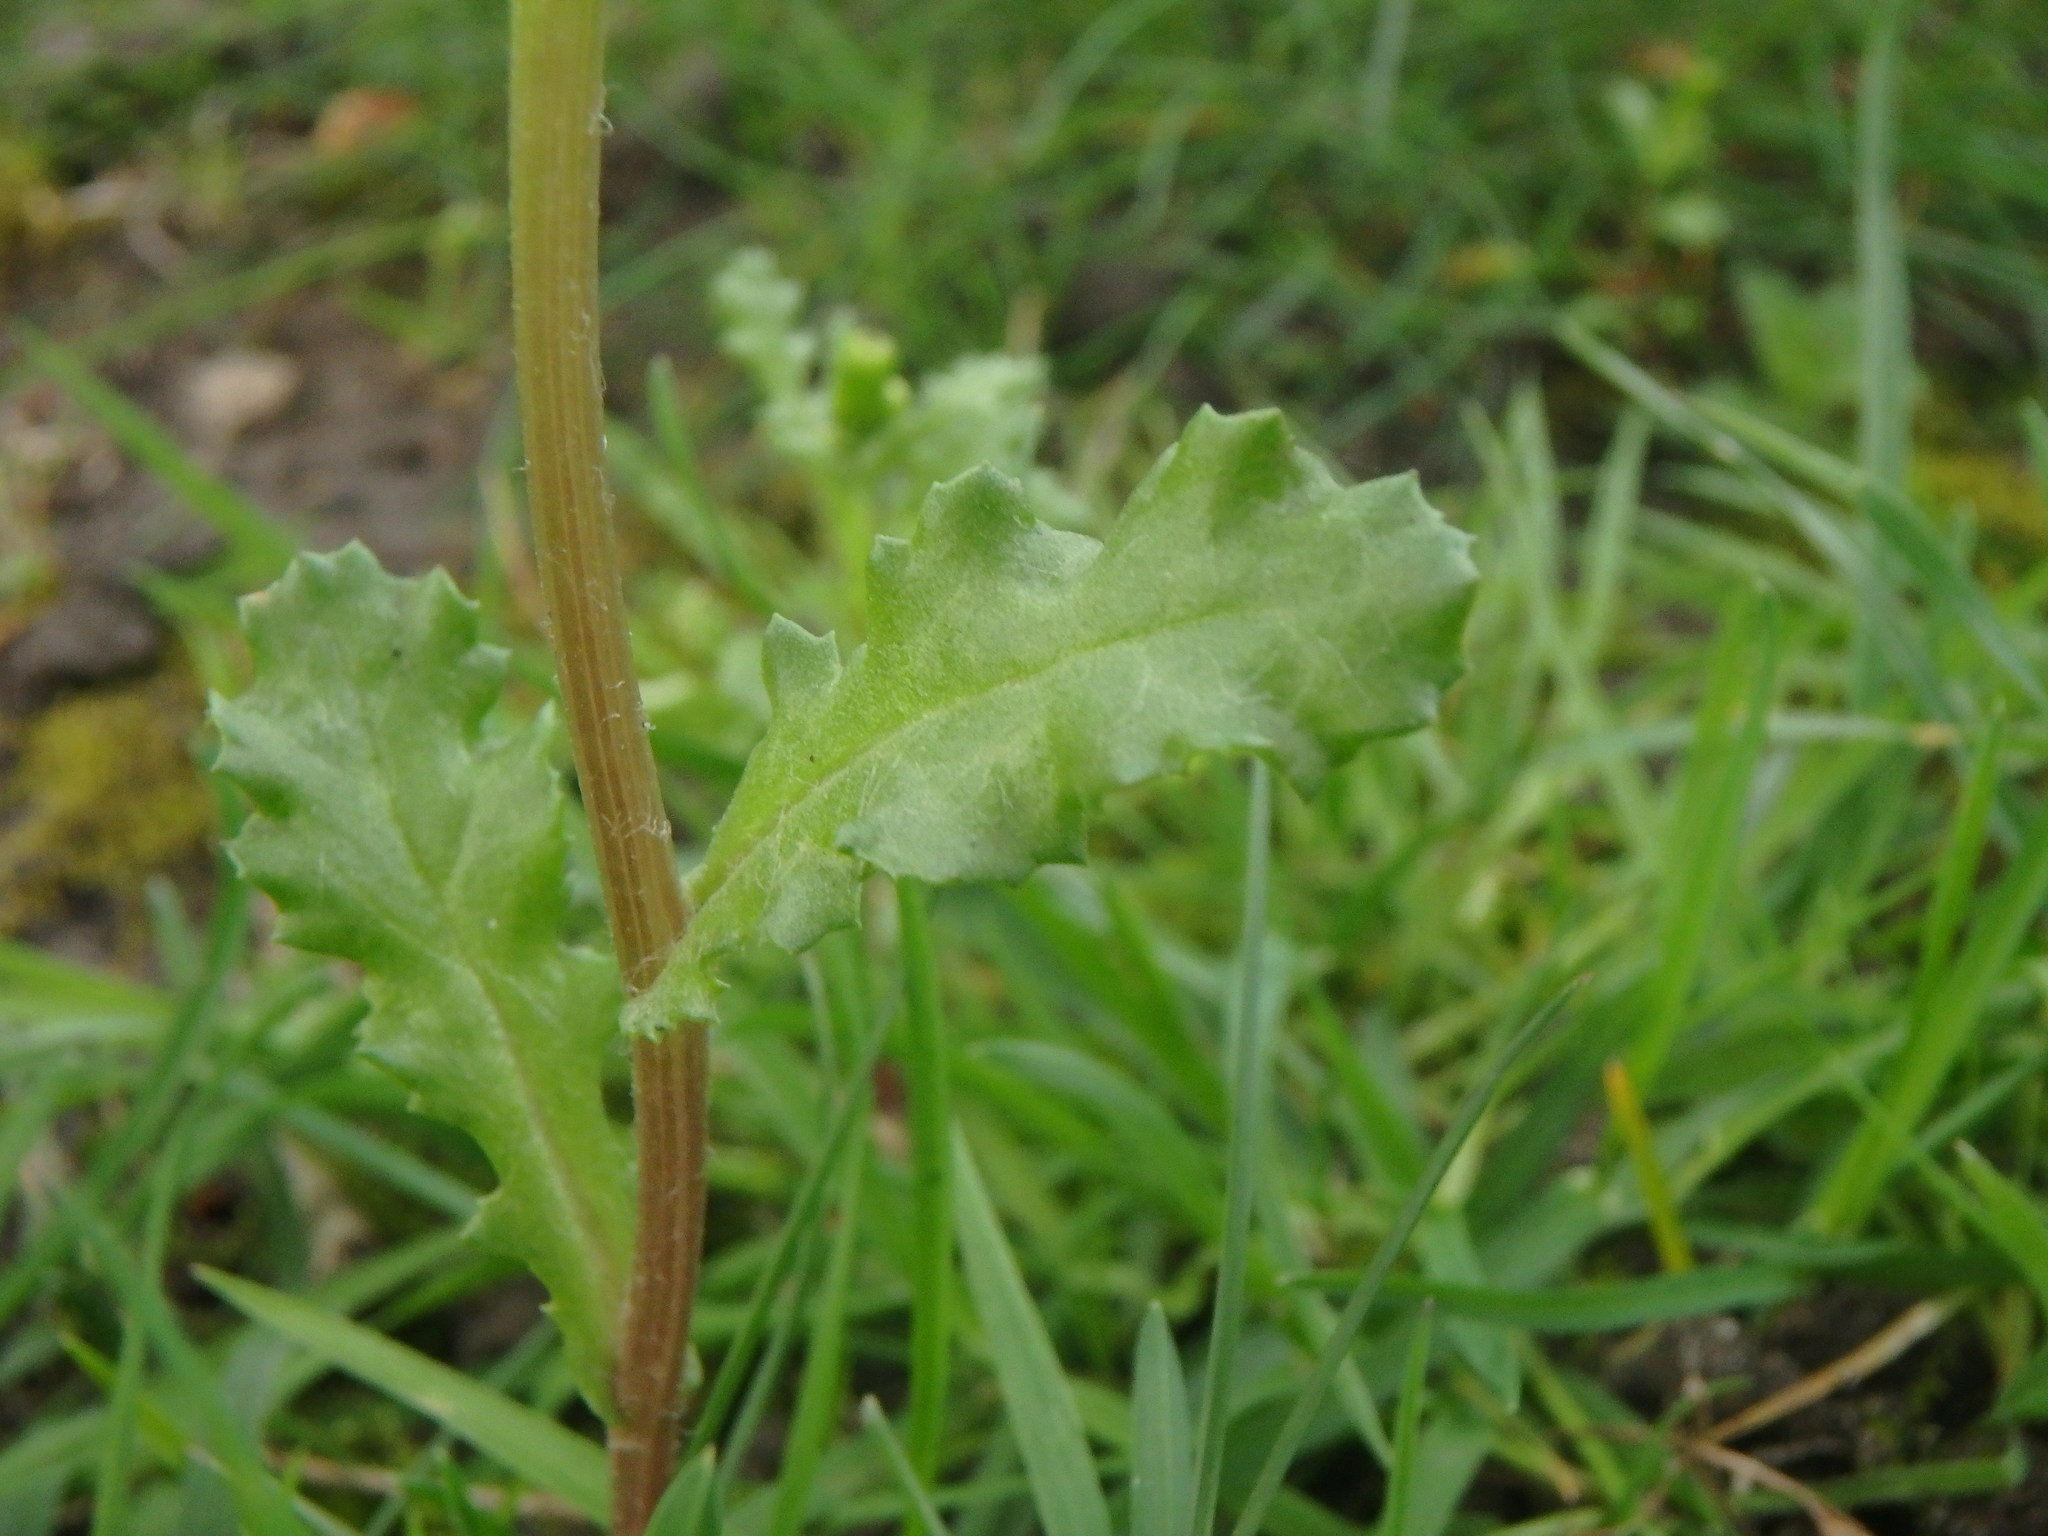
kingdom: Plantae
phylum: Tracheophyta
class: Magnoliopsida
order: Asterales
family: Asteraceae
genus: Senecio
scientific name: Senecio vulgaris
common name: Old-man-in-the-spring
